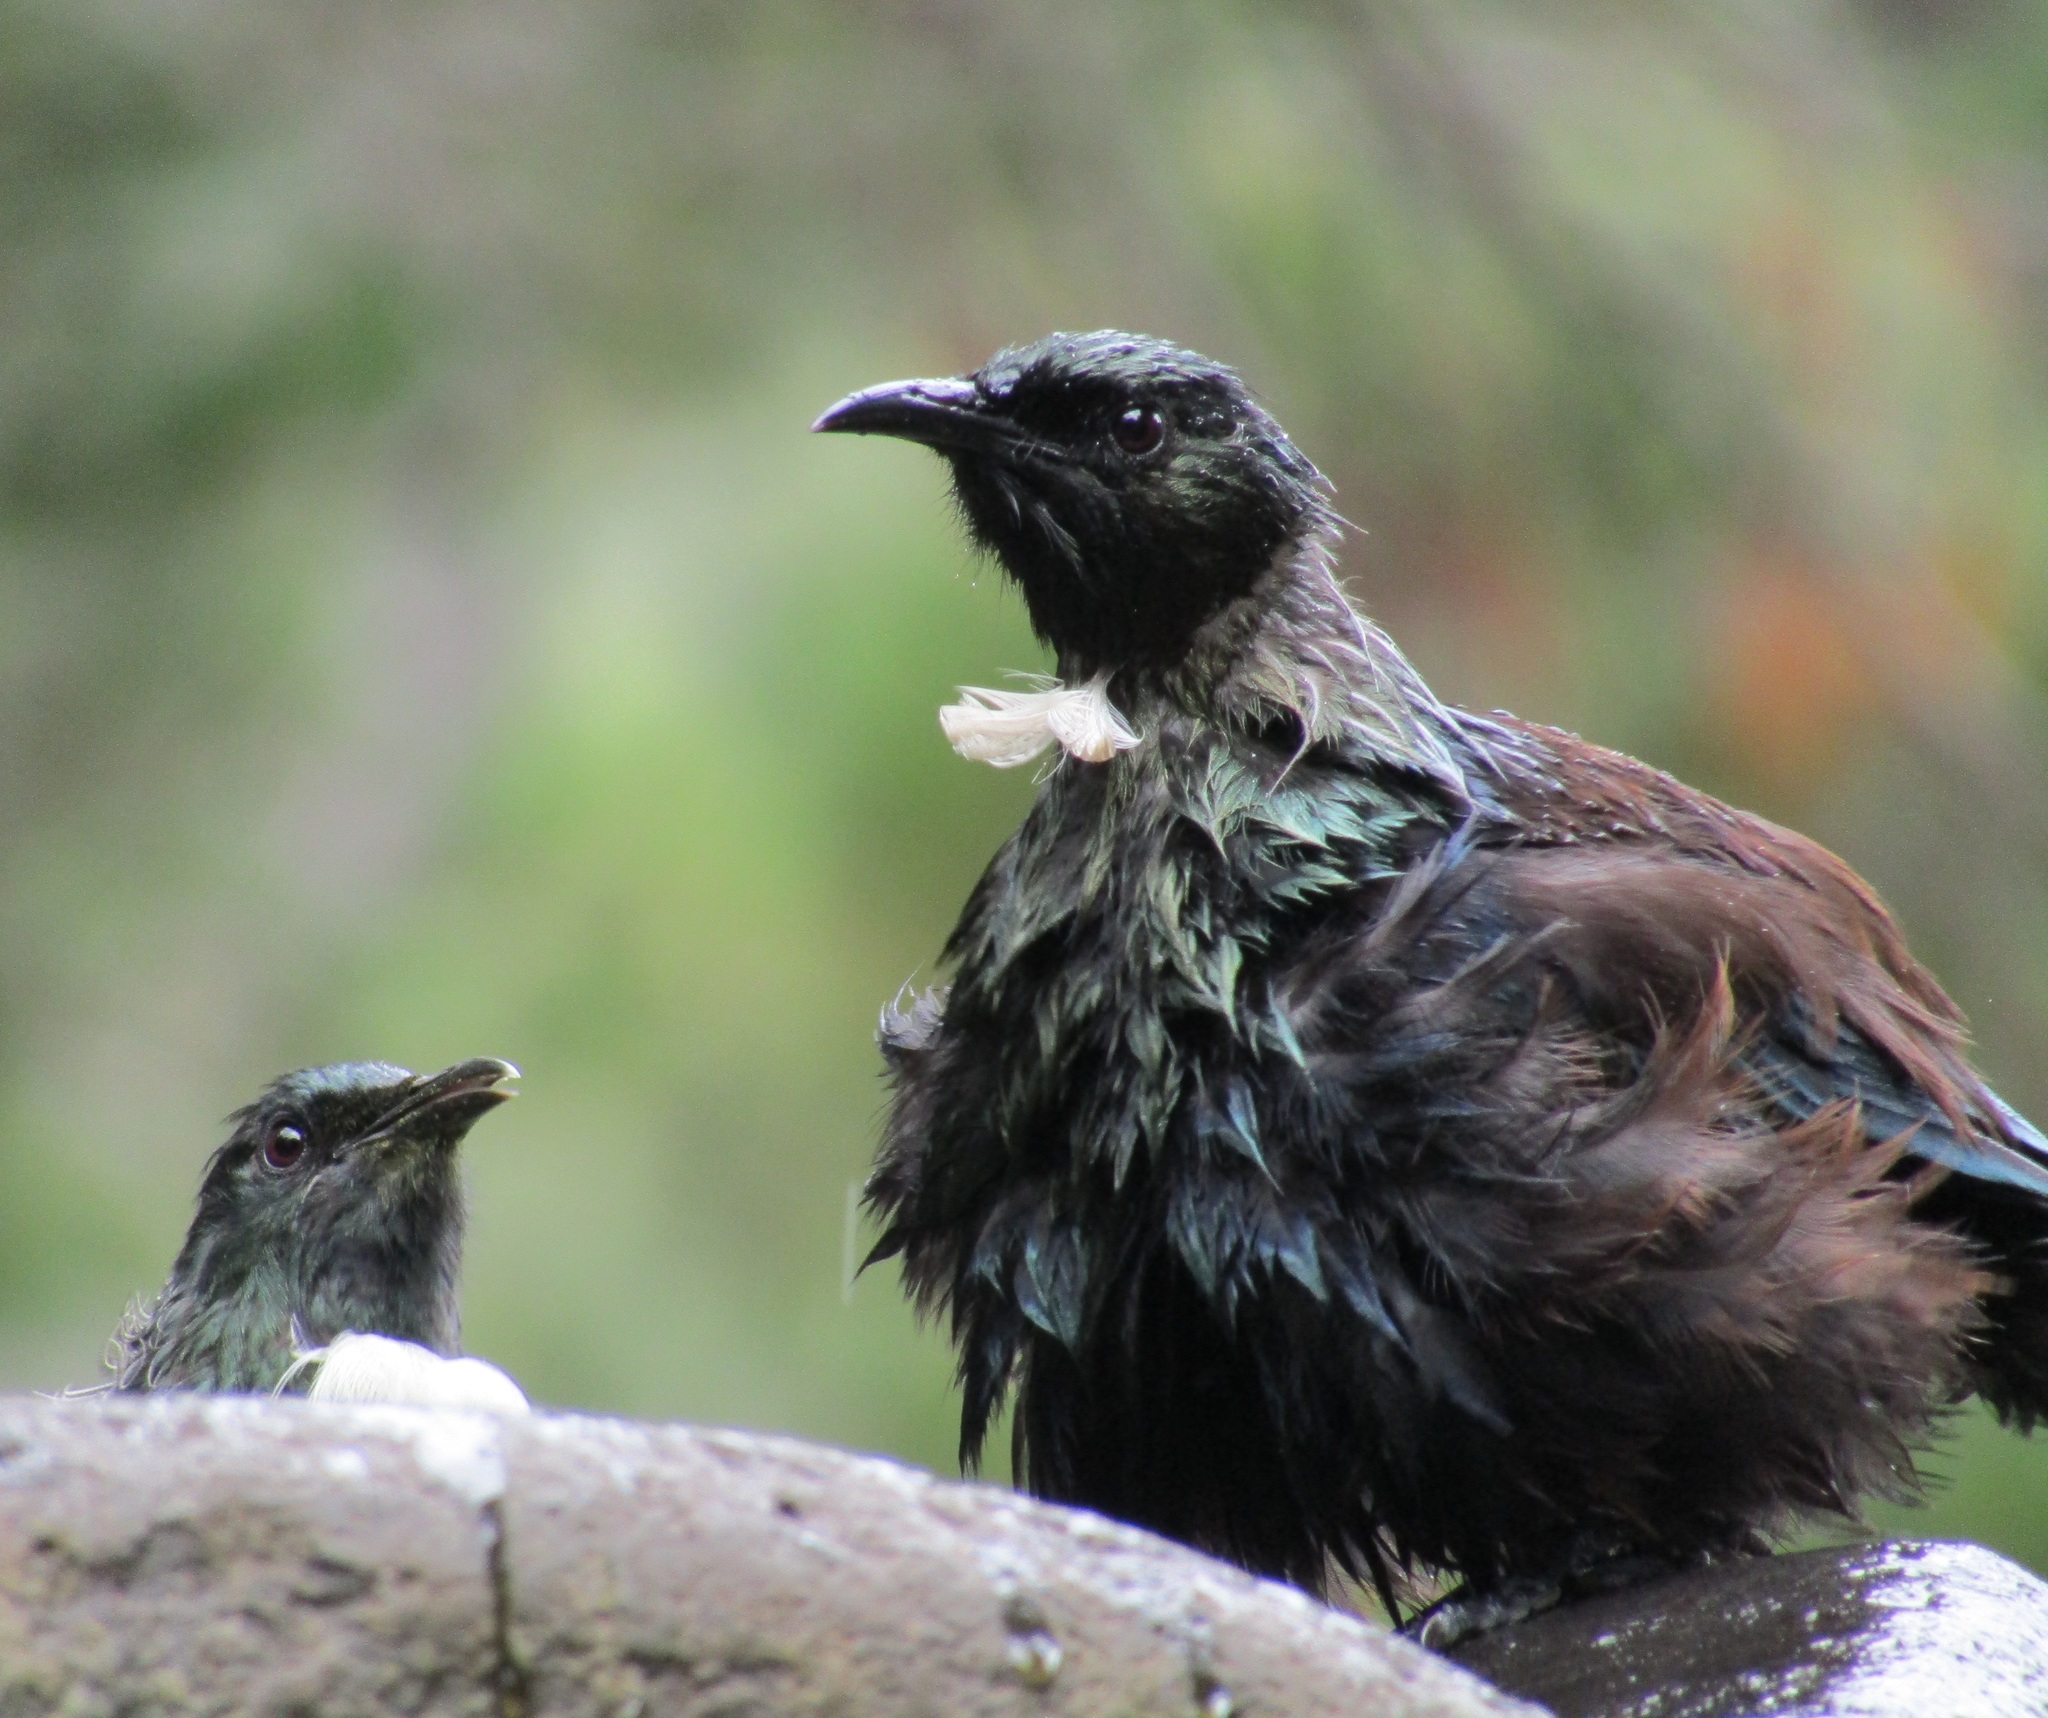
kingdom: Animalia
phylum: Chordata
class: Aves
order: Passeriformes
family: Meliphagidae
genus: Prosthemadera
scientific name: Prosthemadera novaeseelandiae
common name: Tui
